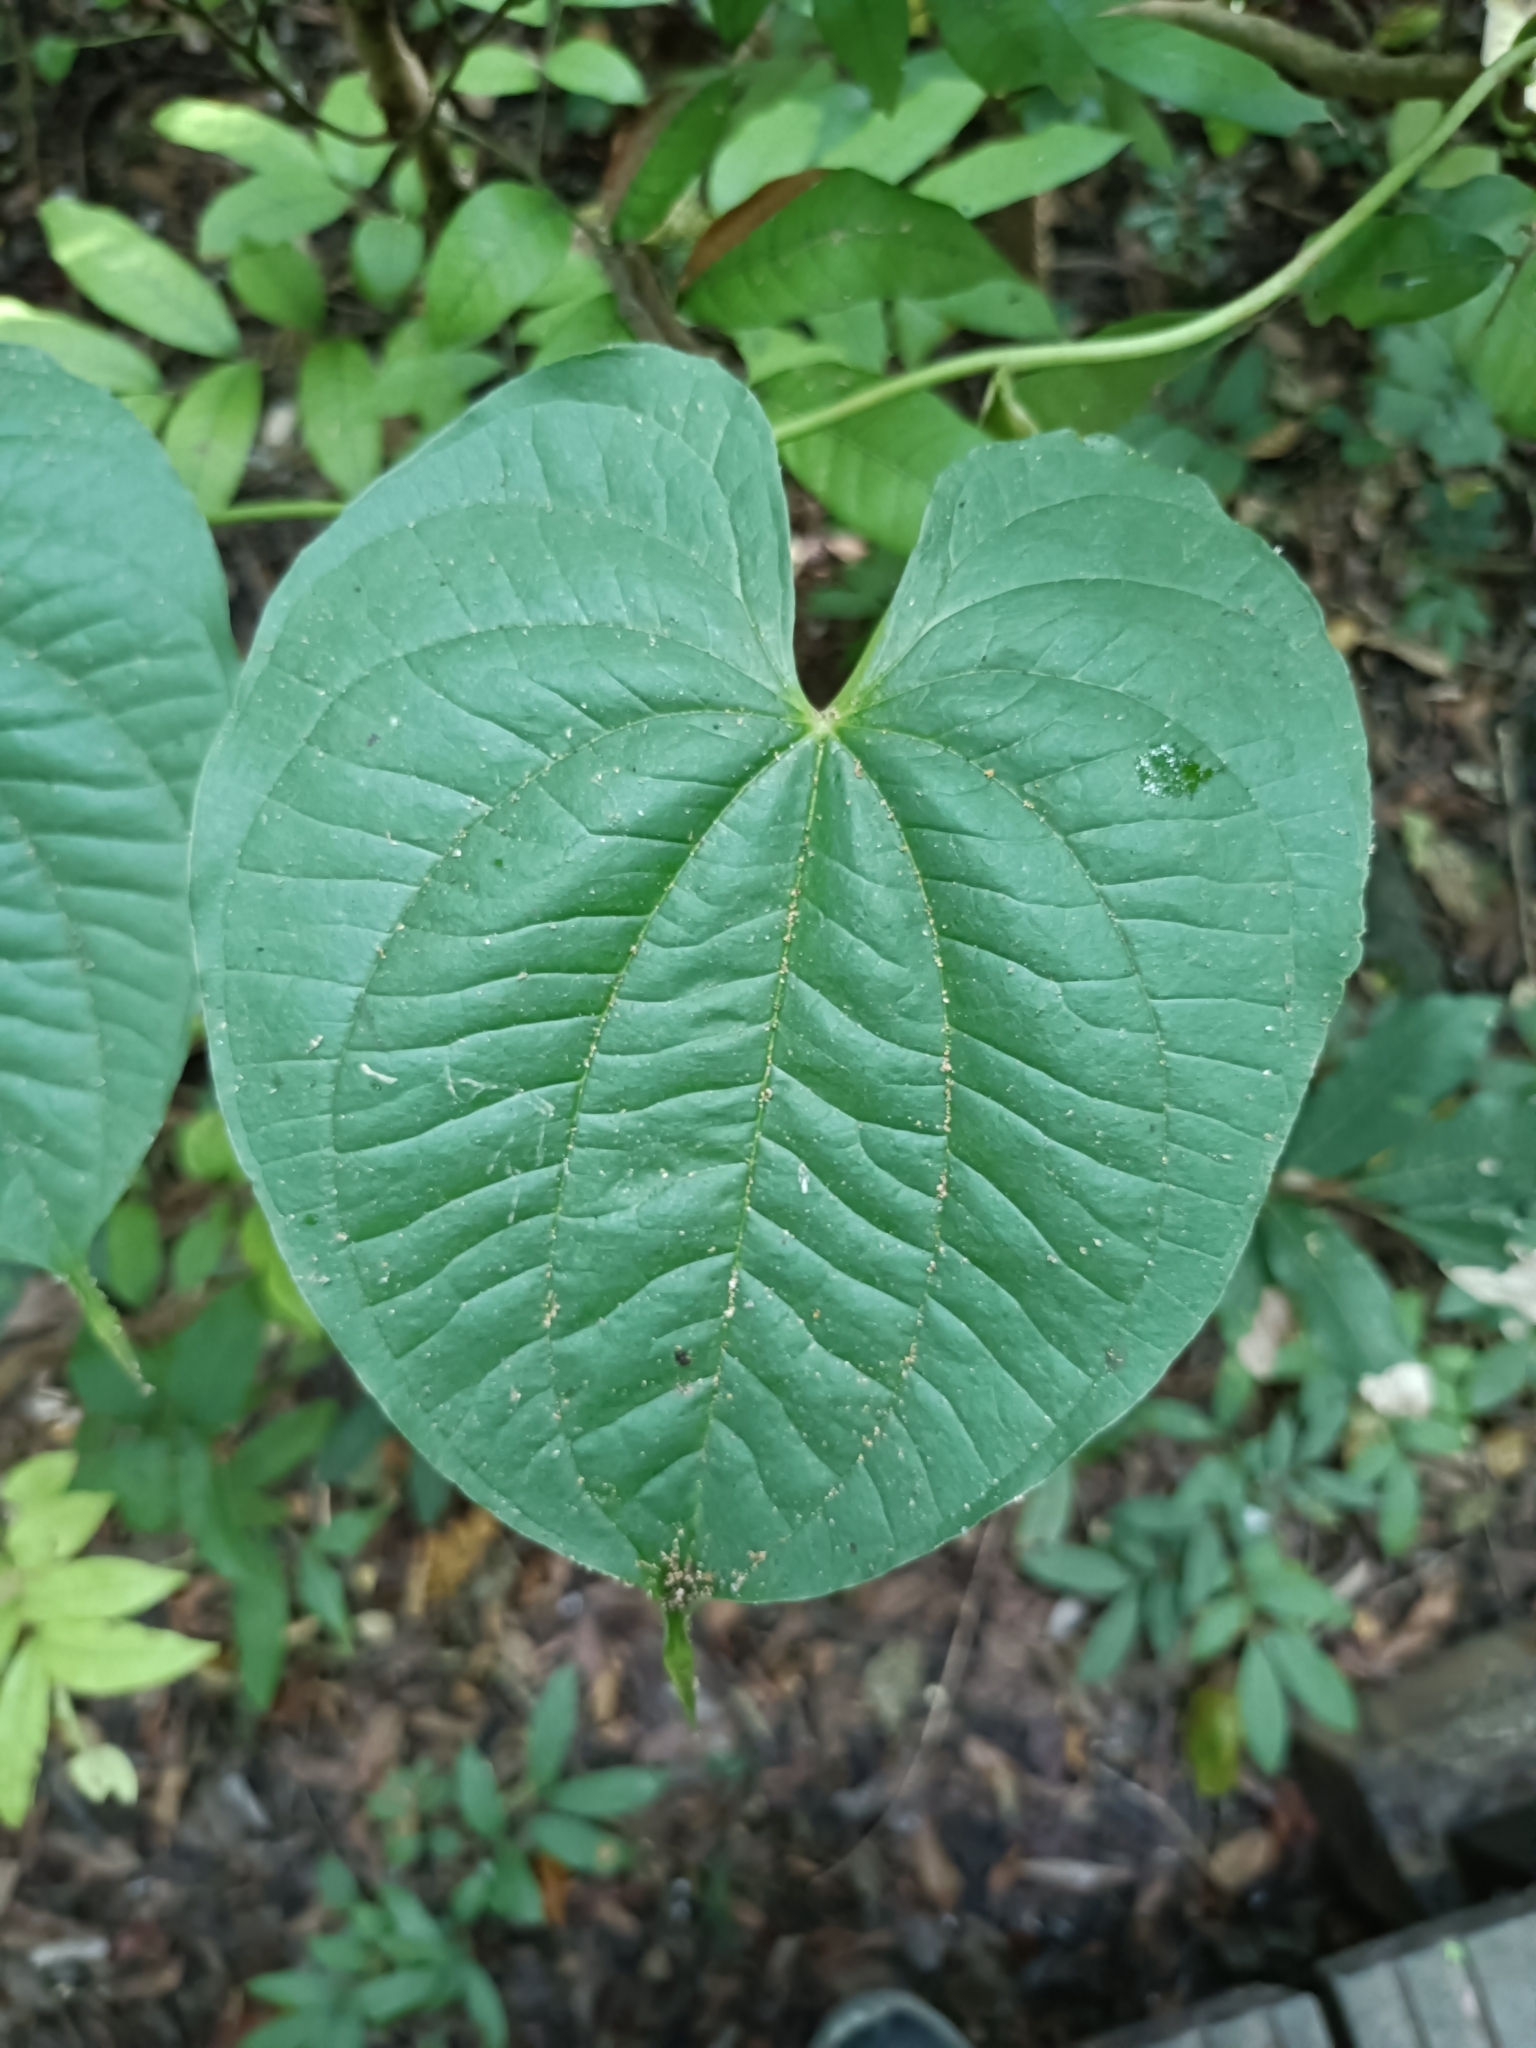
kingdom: Plantae
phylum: Tracheophyta
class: Liliopsida
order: Dioscoreales
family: Dioscoreaceae
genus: Dioscorea
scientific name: Dioscorea bulbifera
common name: Air yam
